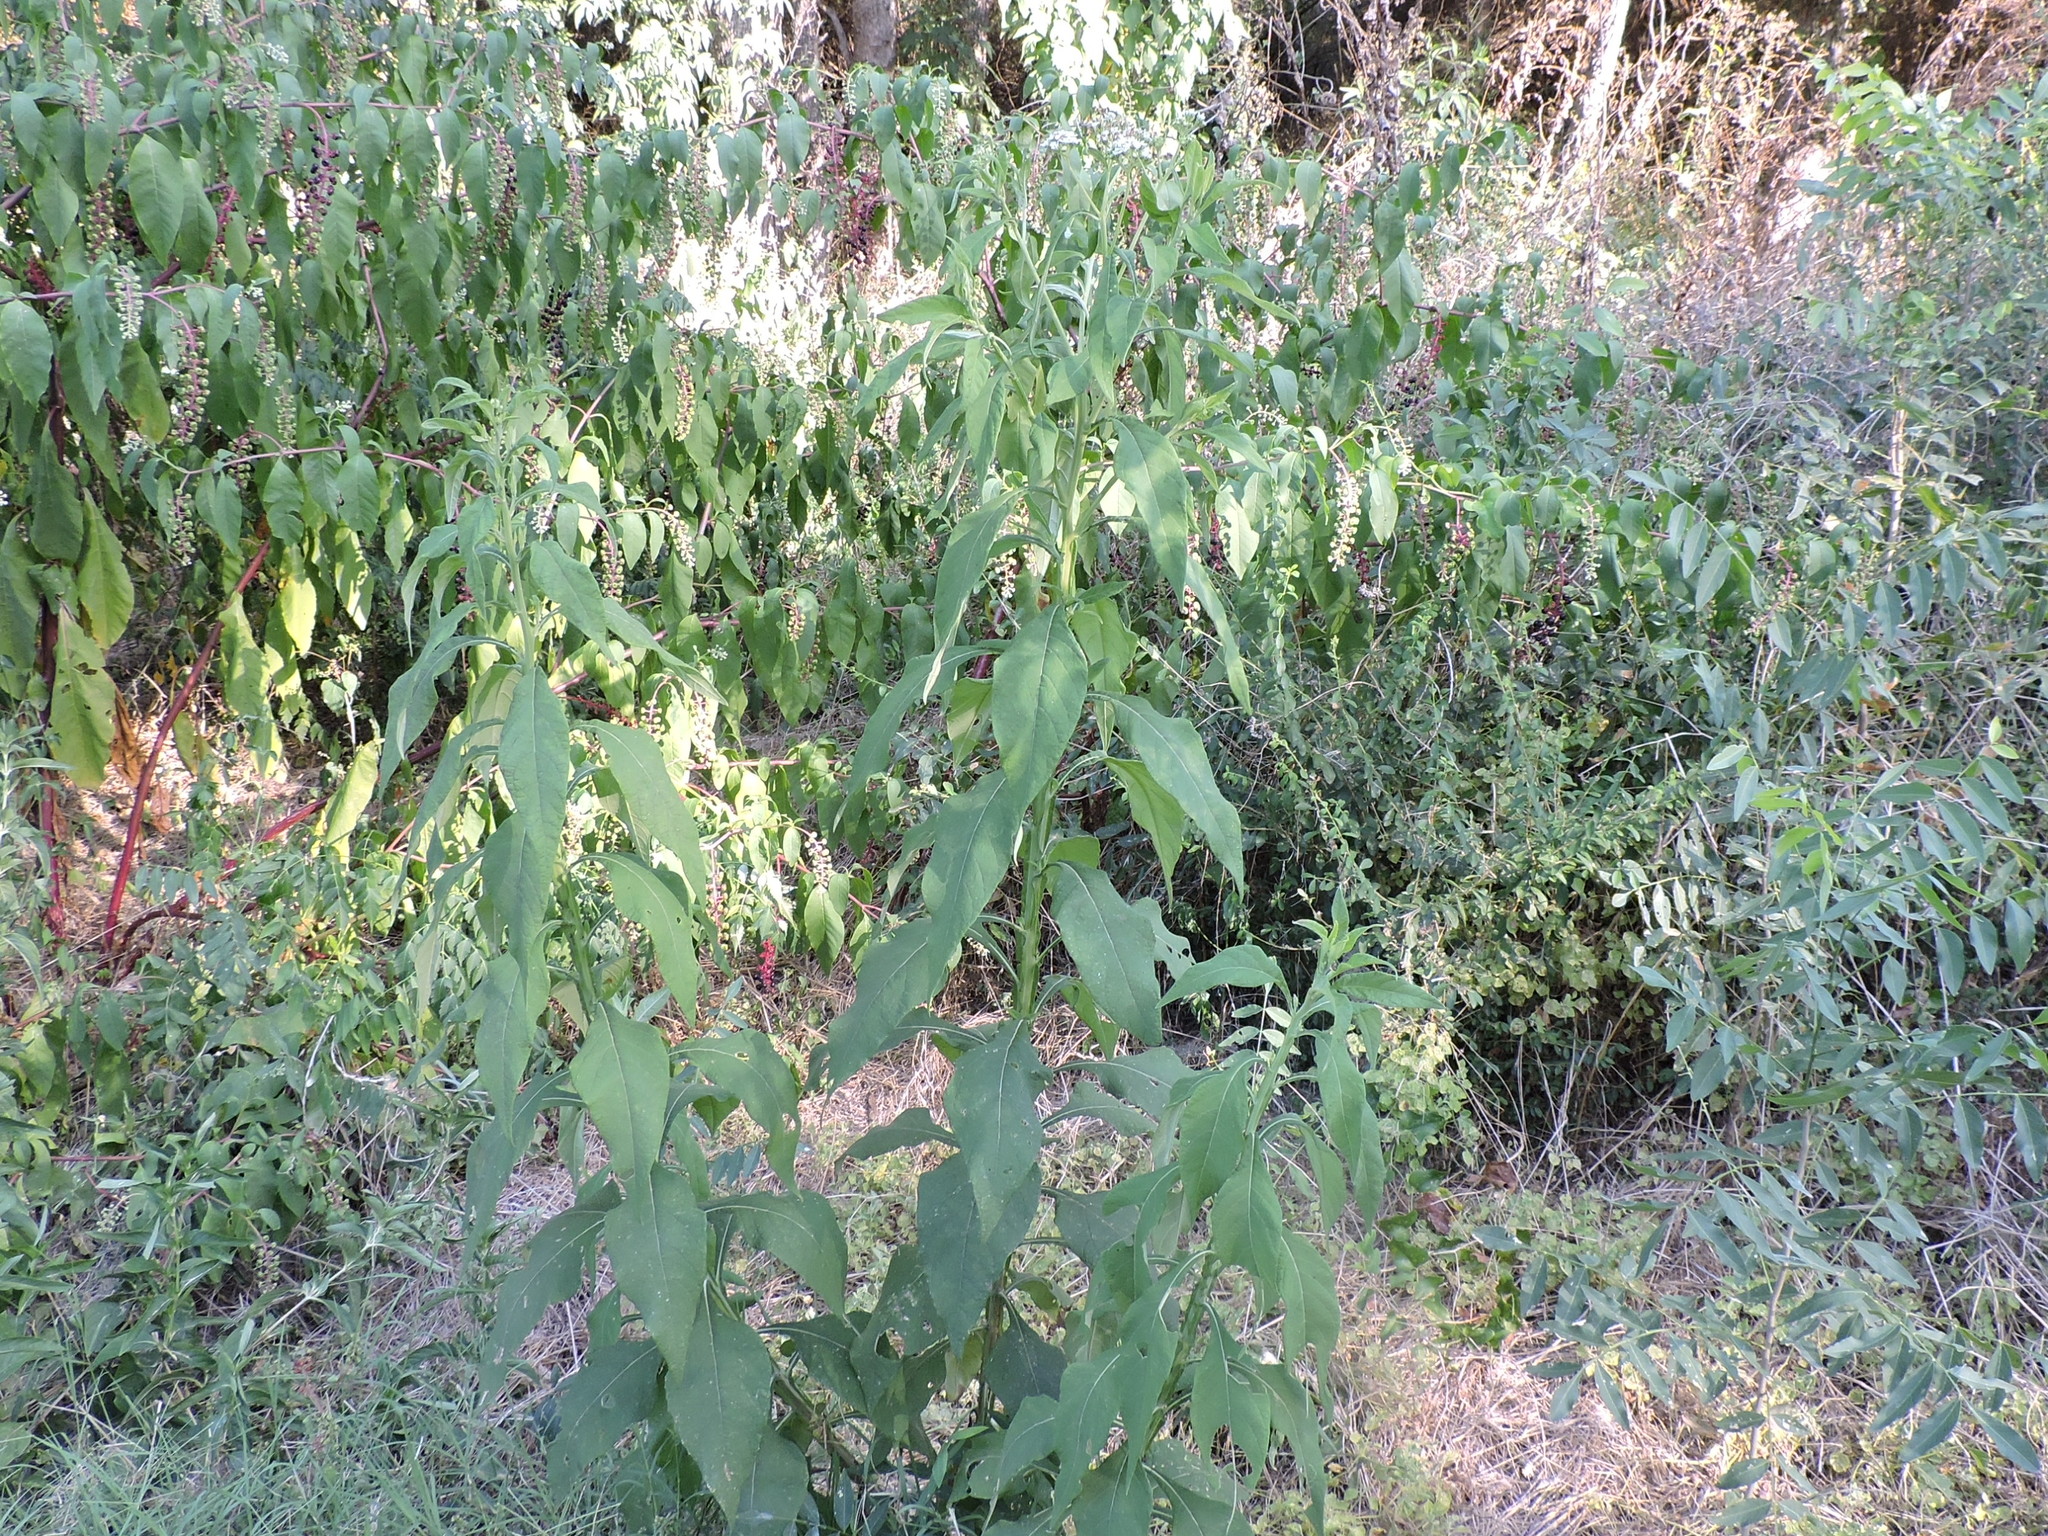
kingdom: Plantae
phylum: Tracheophyta
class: Magnoliopsida
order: Asterales
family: Asteraceae
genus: Verbesina
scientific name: Verbesina virginica
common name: Frostweed
